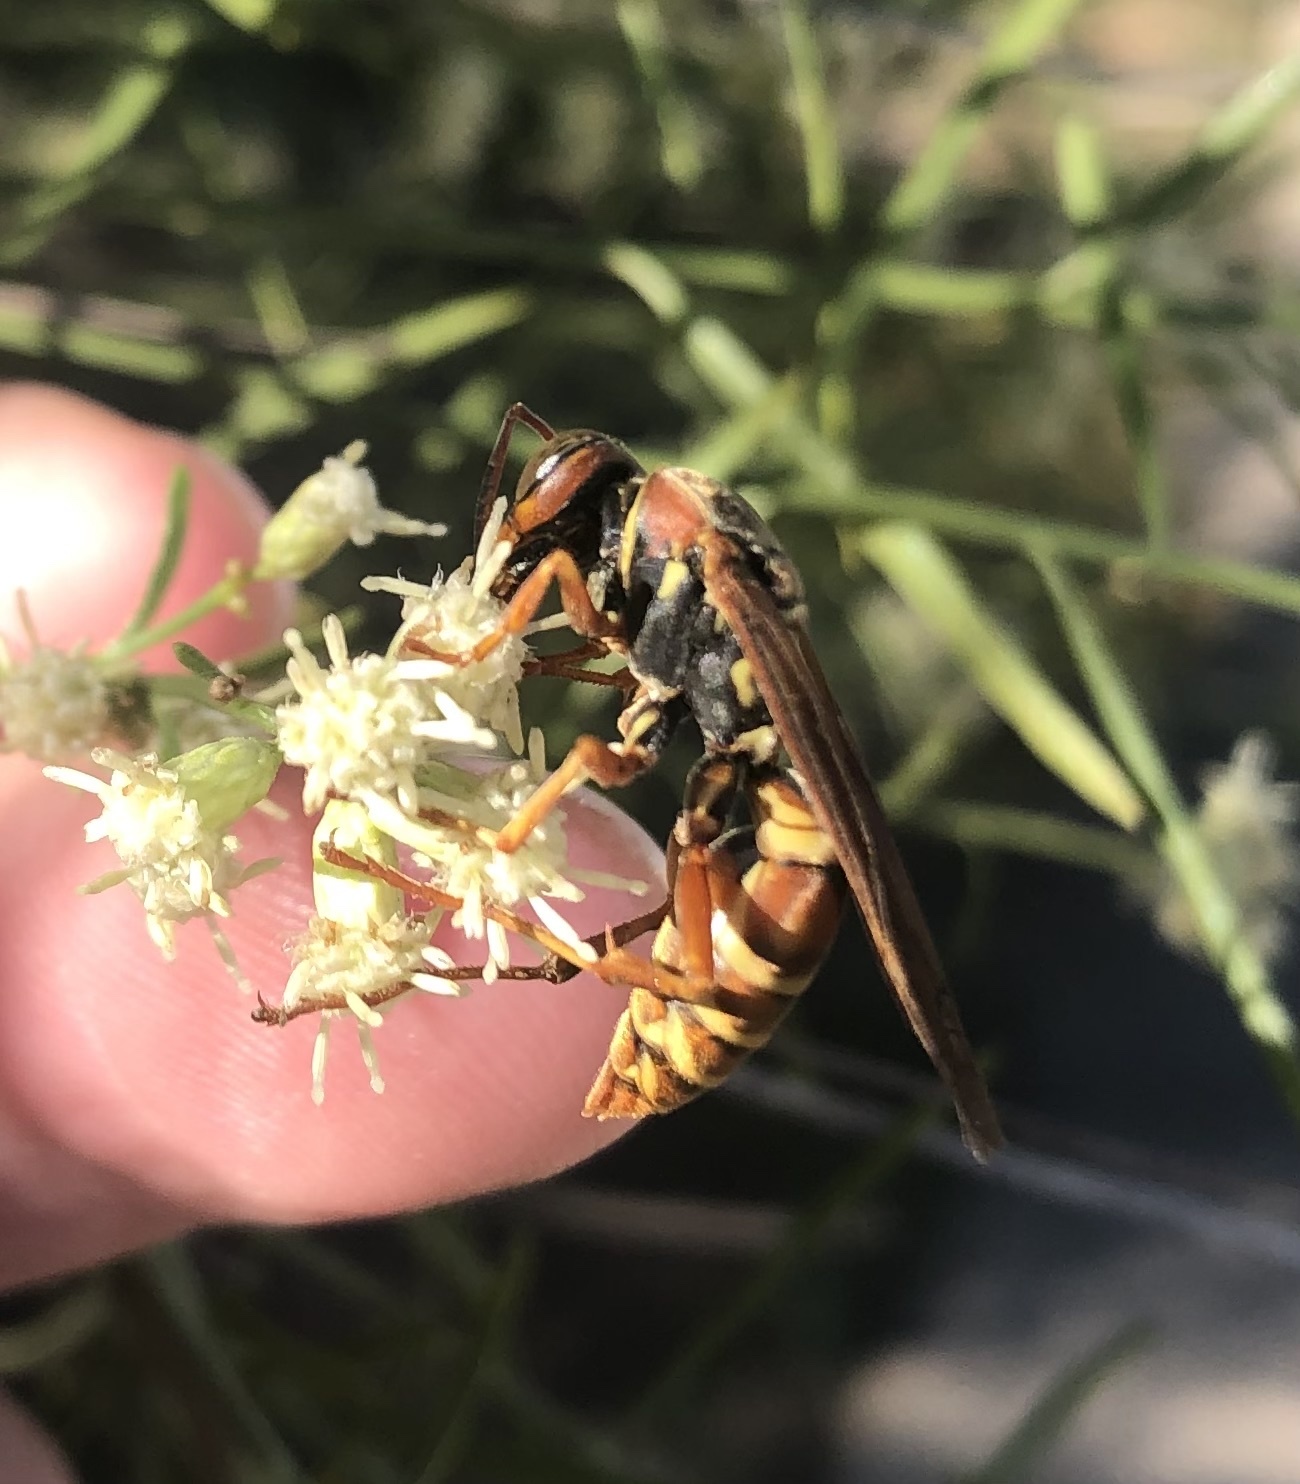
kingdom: Animalia
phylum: Arthropoda
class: Insecta
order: Hymenoptera
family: Eumenidae
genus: Polistes
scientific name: Polistes dorsalis
